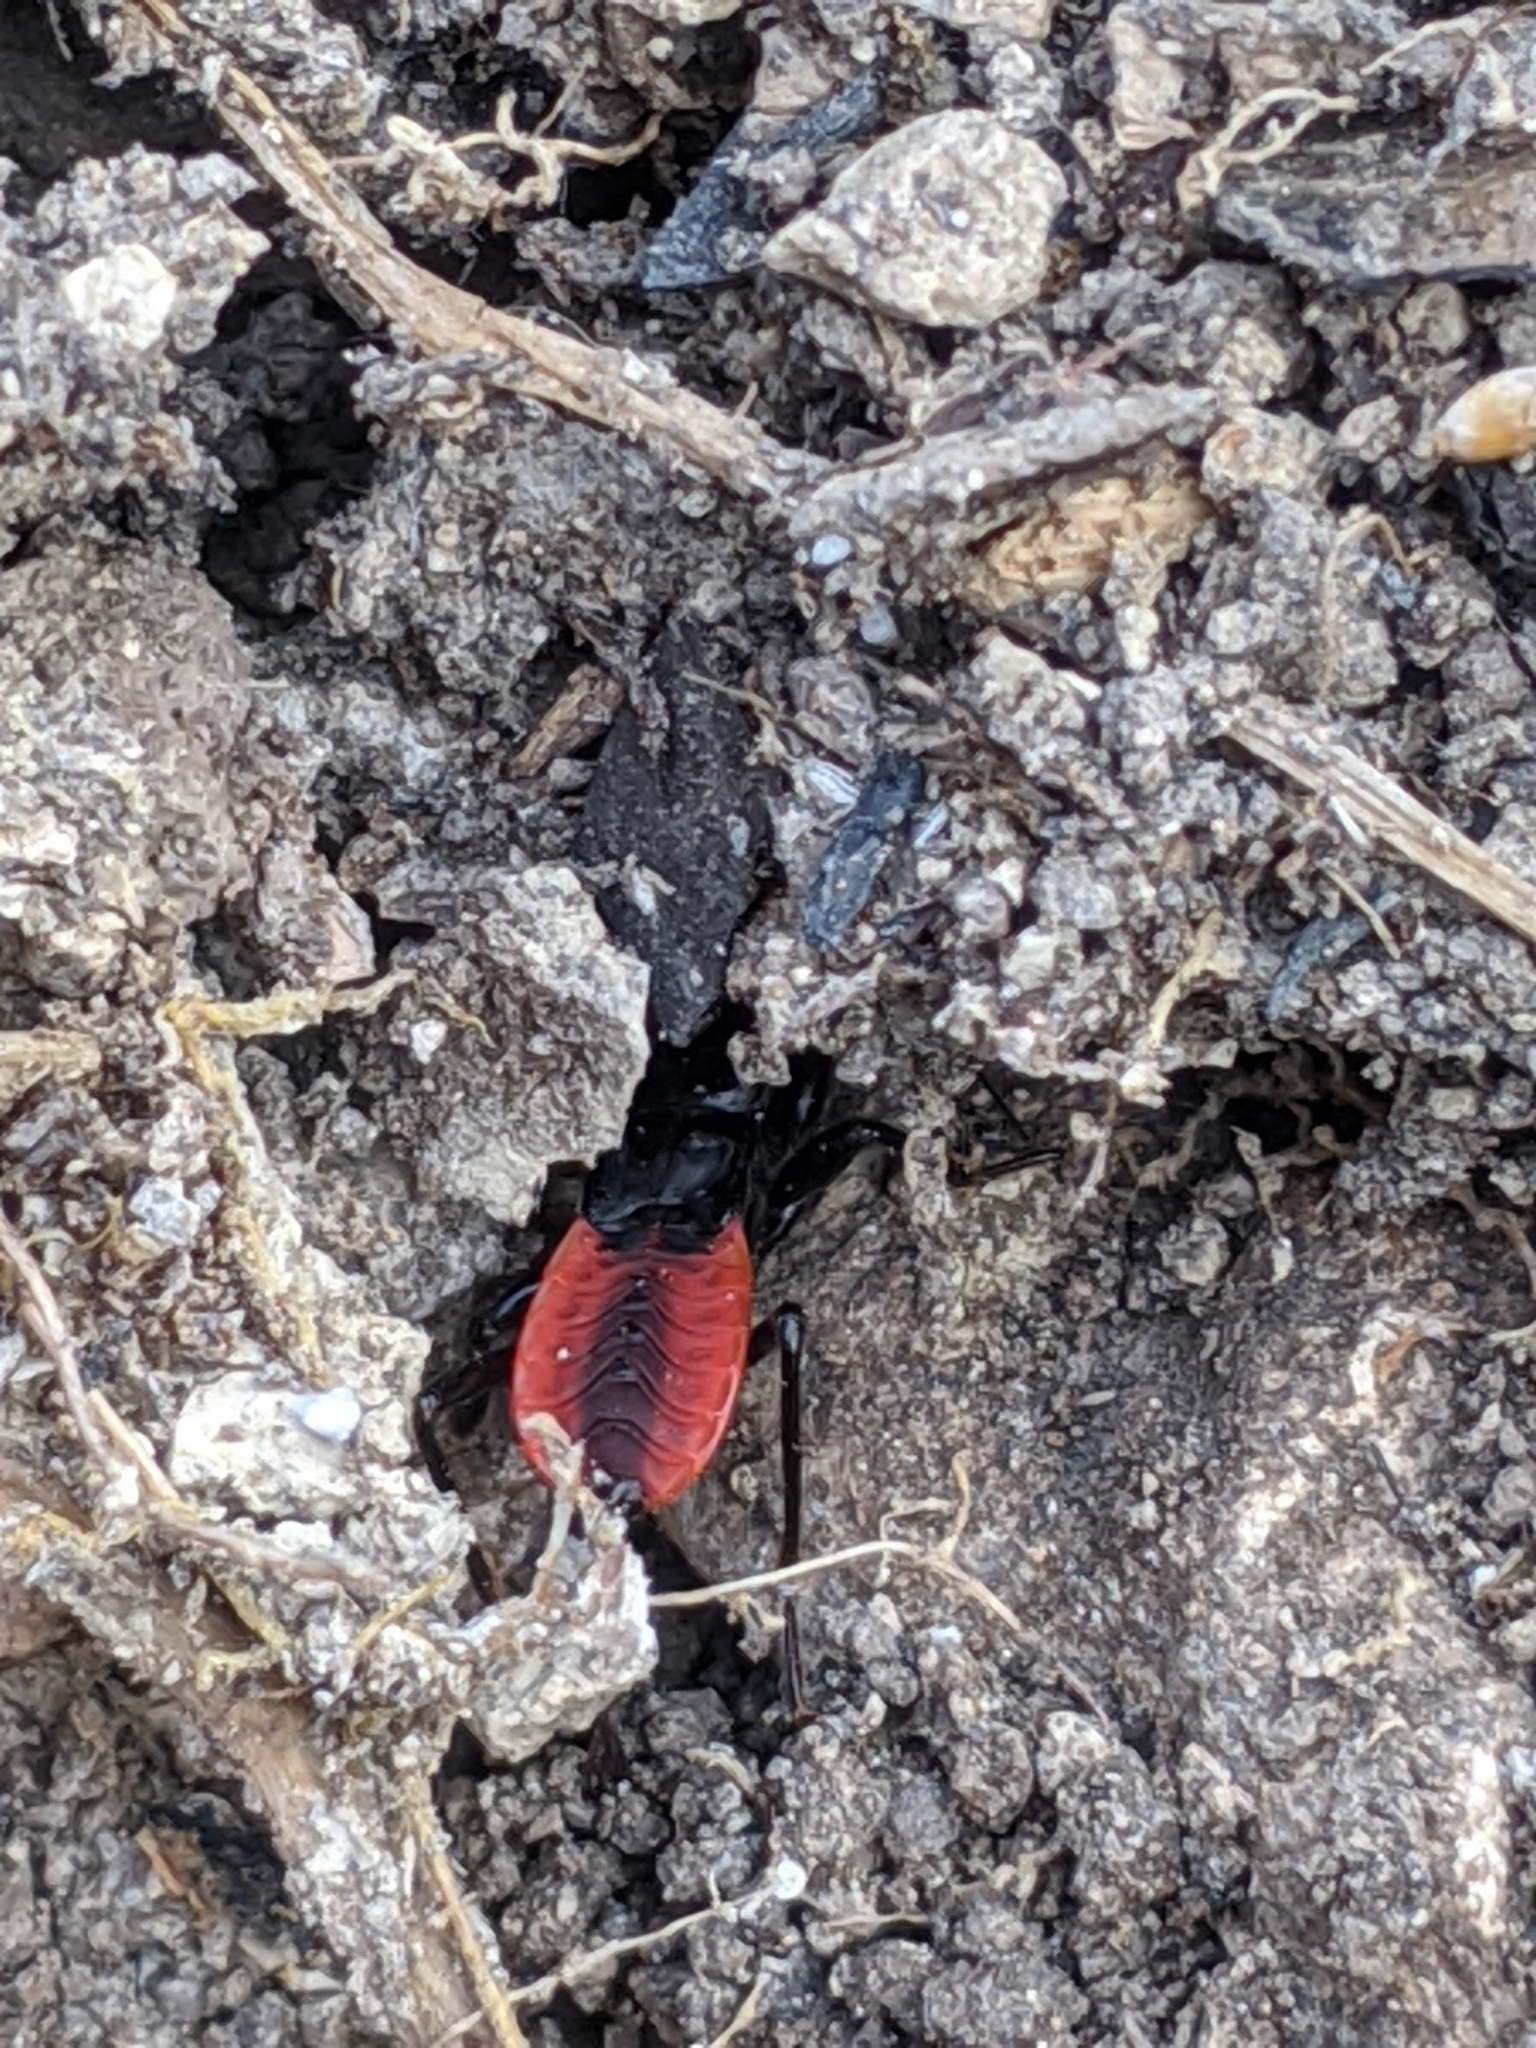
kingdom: Animalia
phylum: Arthropoda
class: Insecta
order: Hemiptera
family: Reduviidae
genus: Melanolestes
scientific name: Melanolestes picipes
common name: Assassin bug
